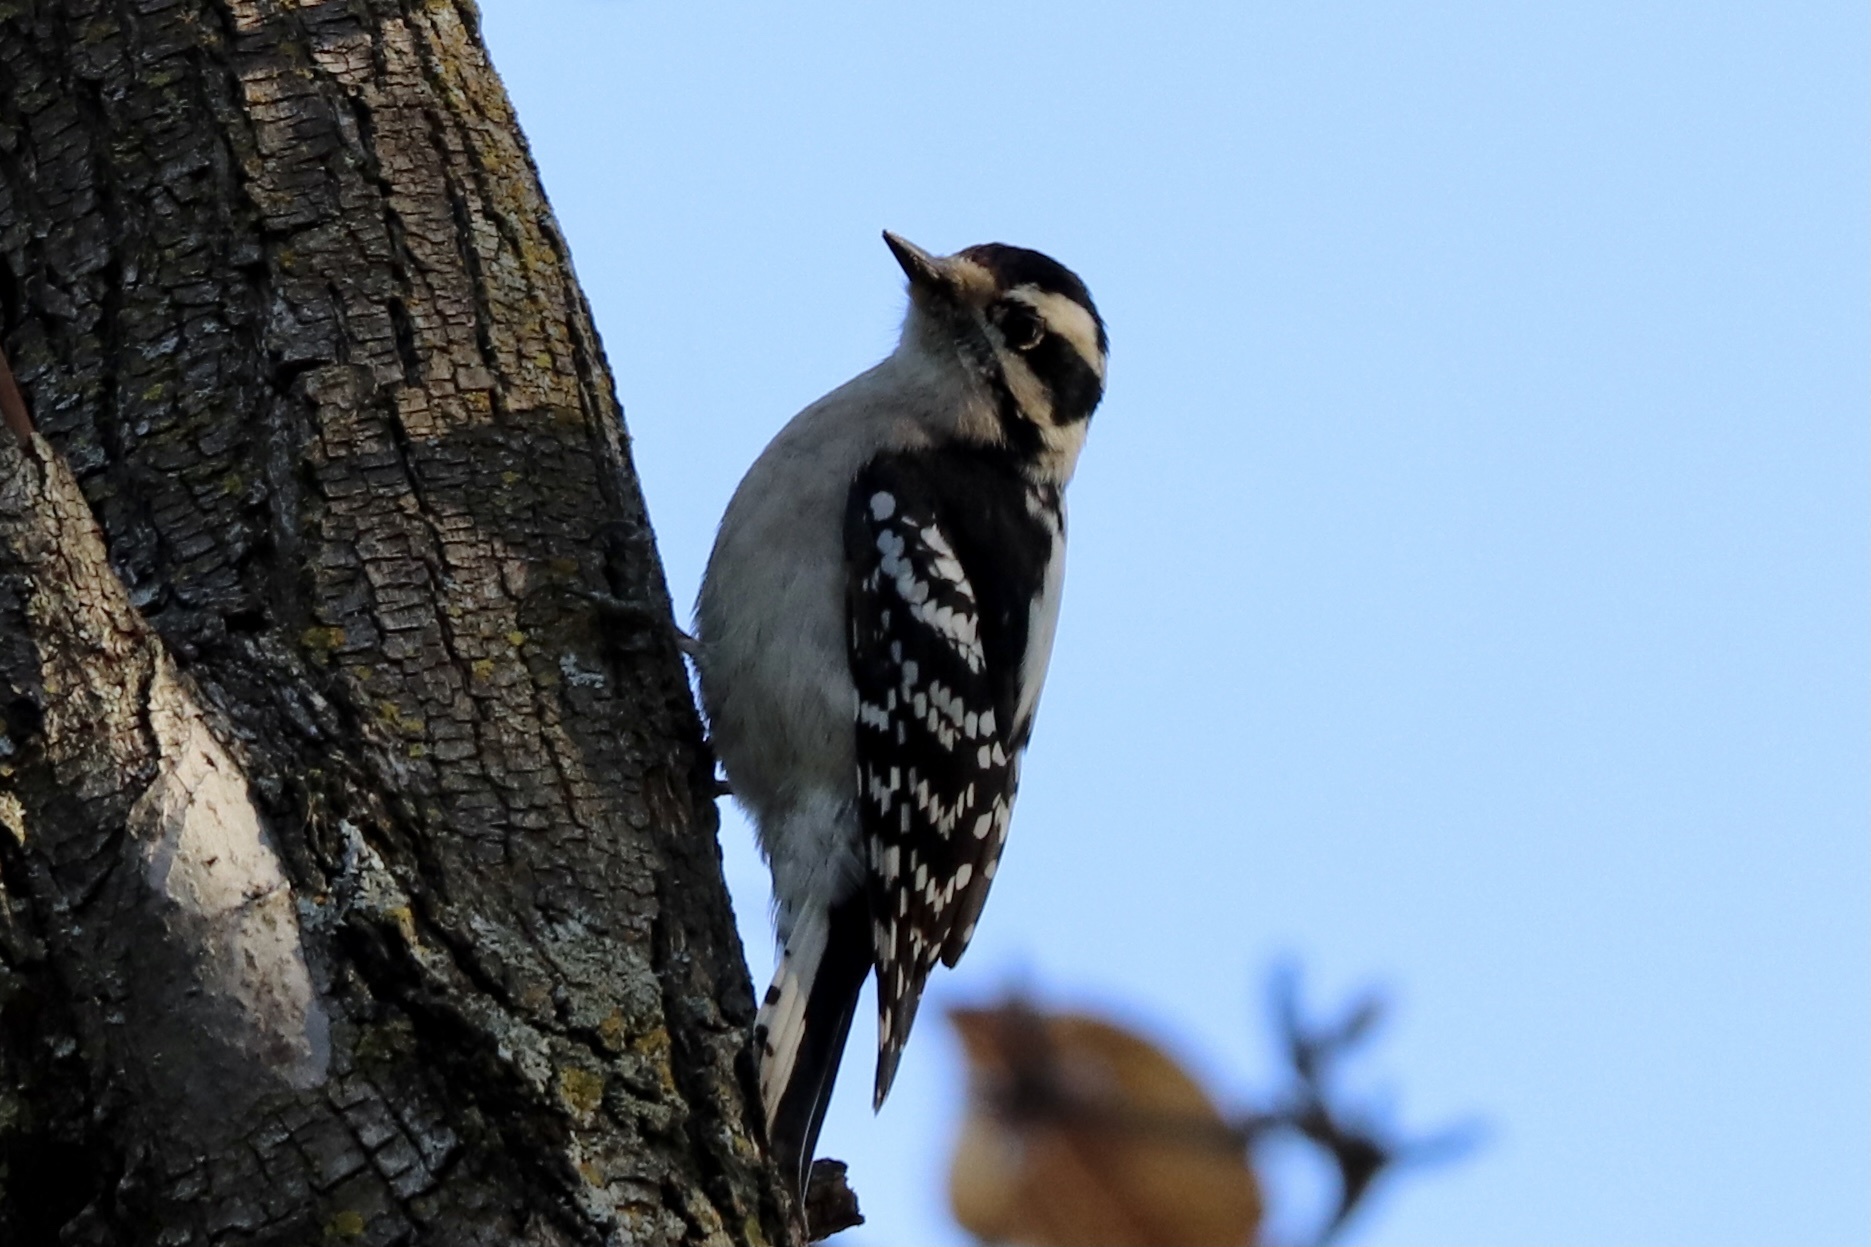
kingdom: Animalia
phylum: Chordata
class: Aves
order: Piciformes
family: Picidae
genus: Dryobates
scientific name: Dryobates pubescens
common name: Downy woodpecker
